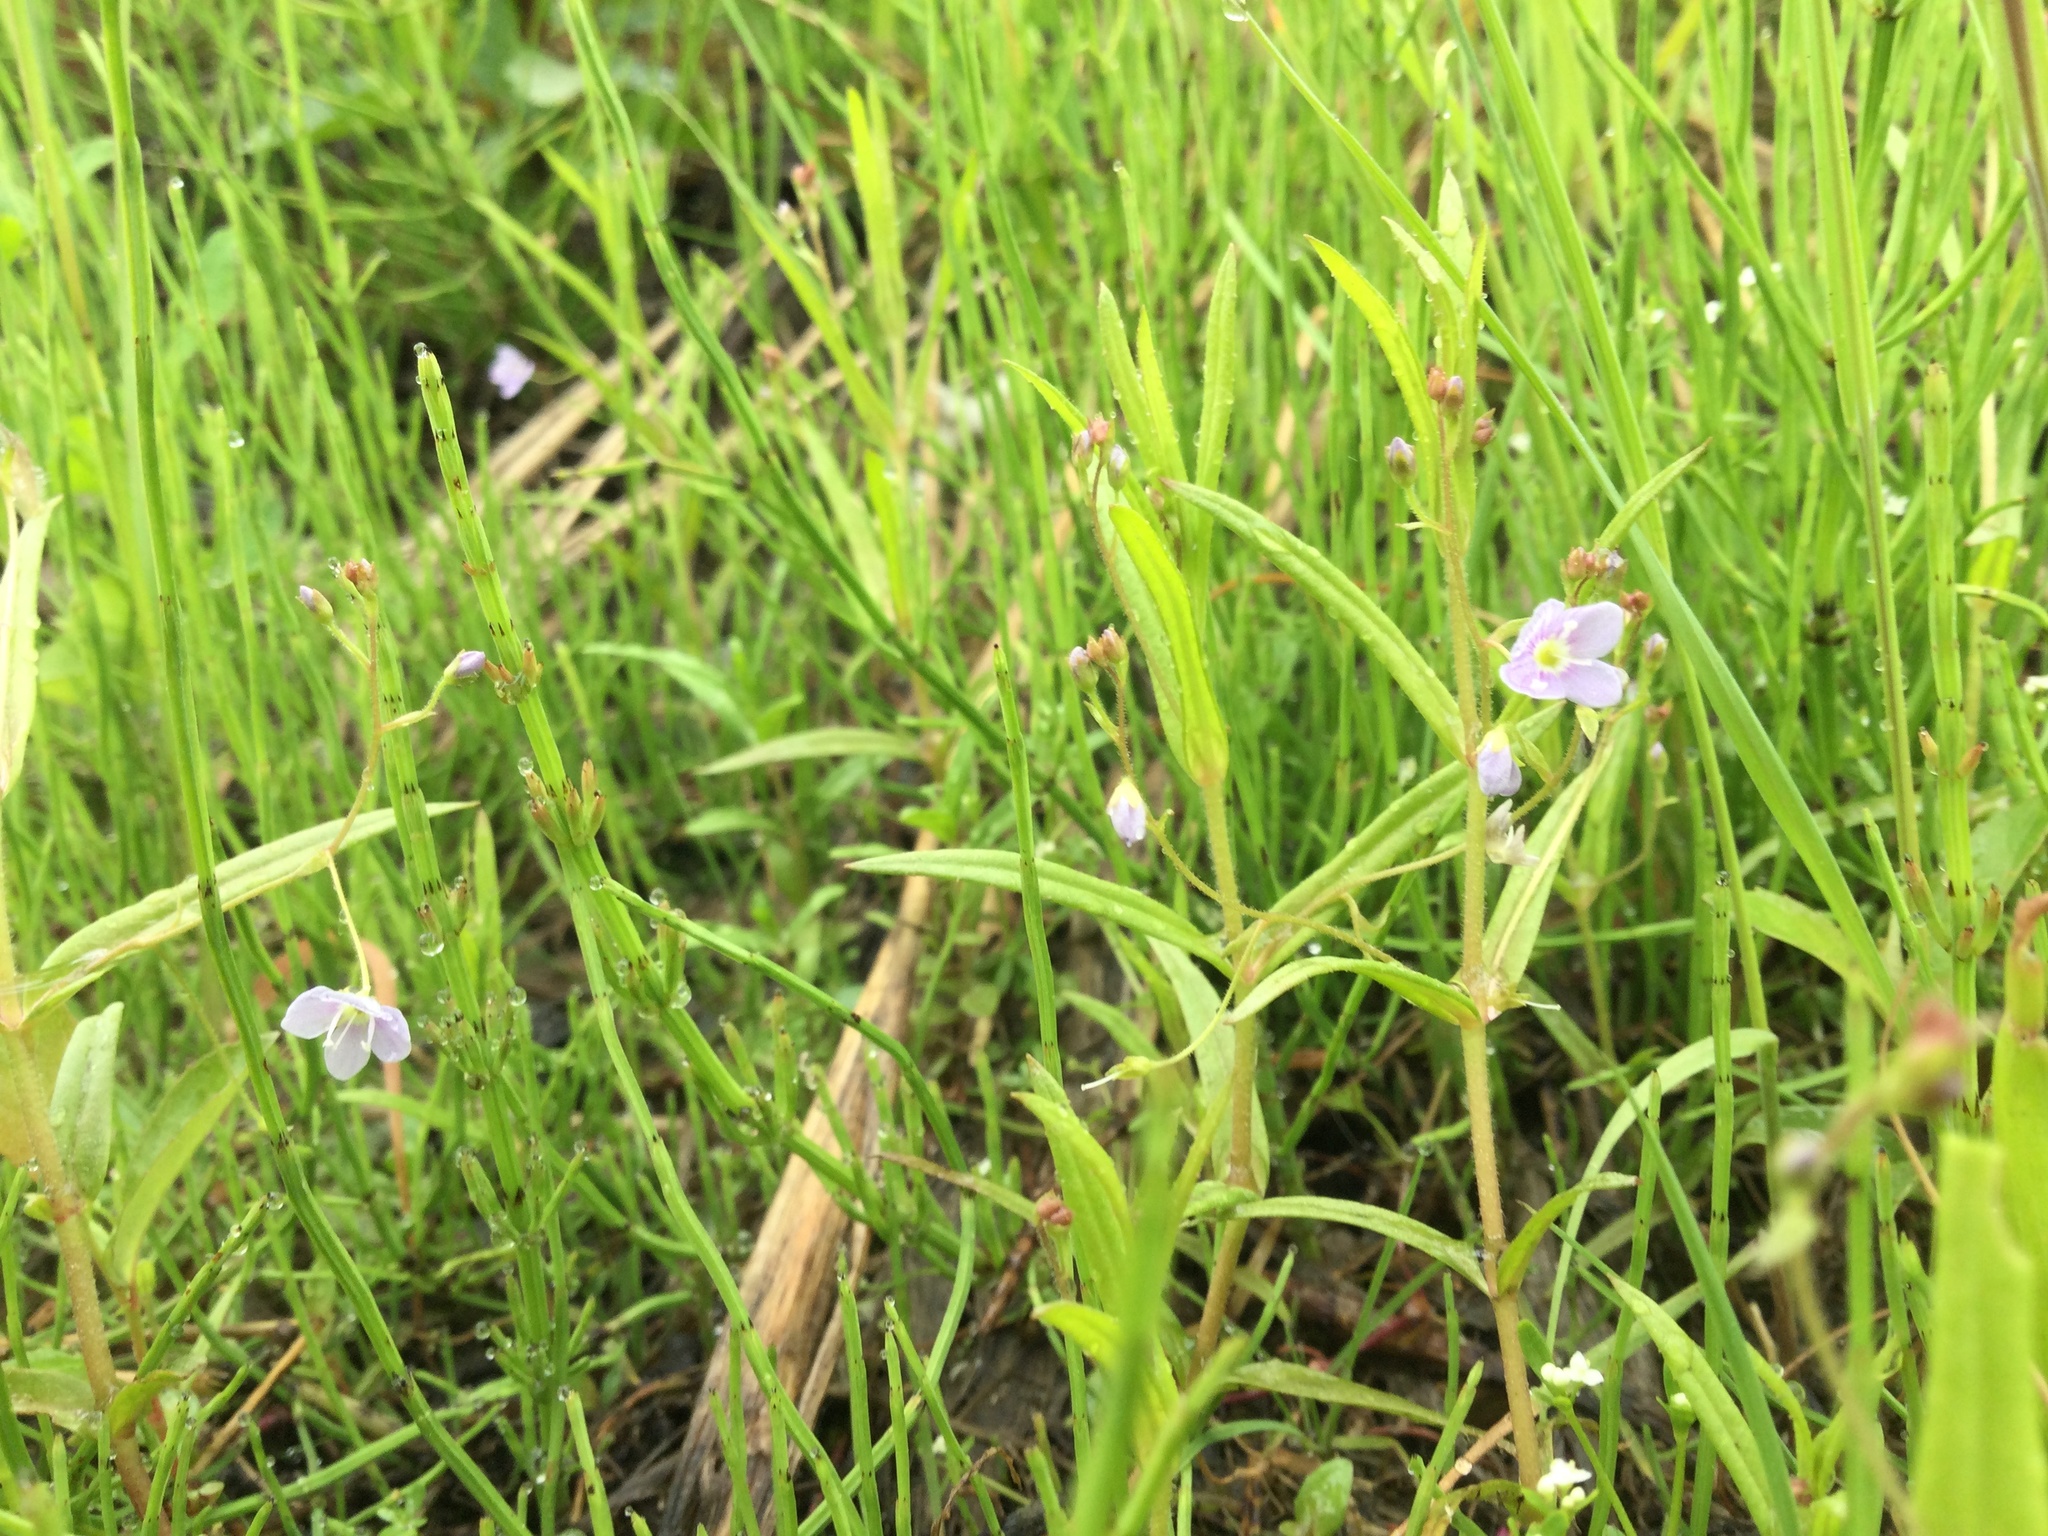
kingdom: Plantae
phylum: Tracheophyta
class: Magnoliopsida
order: Lamiales
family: Plantaginaceae
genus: Veronica
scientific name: Veronica scutellata
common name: Marsh speedwell
